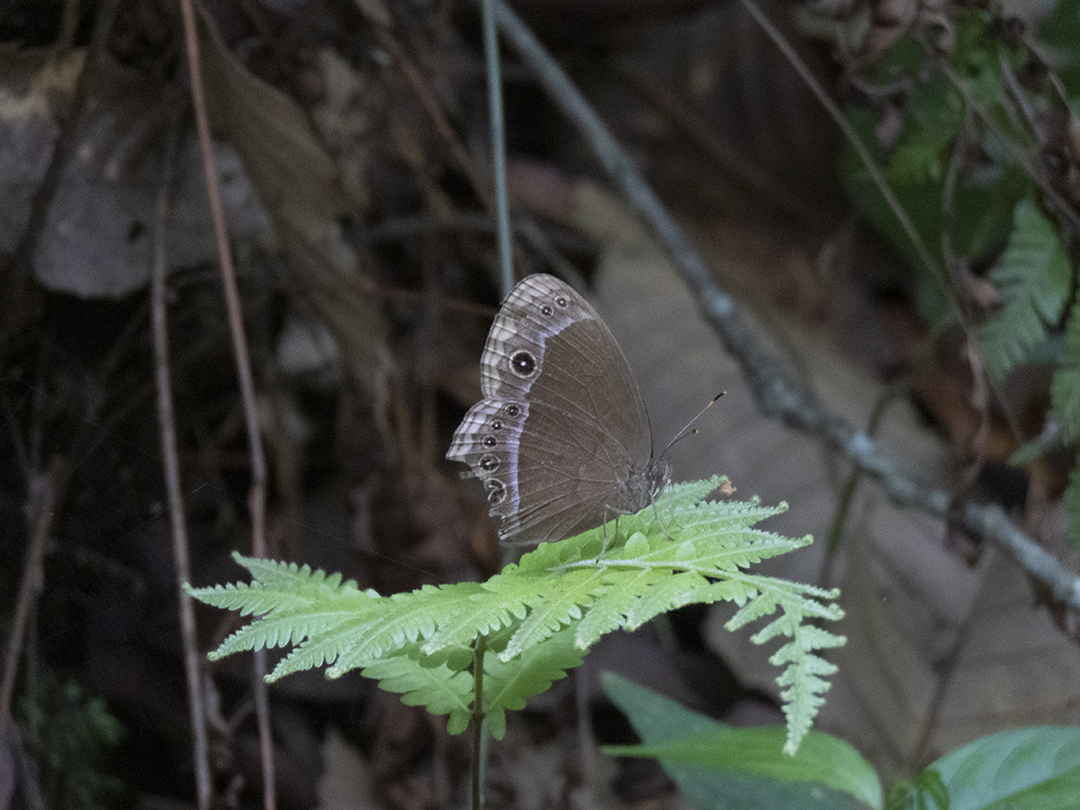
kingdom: Animalia
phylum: Arthropoda
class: Insecta
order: Lepidoptera
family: Nymphalidae
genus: Mycalesis
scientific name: Mycalesis adamsoni
